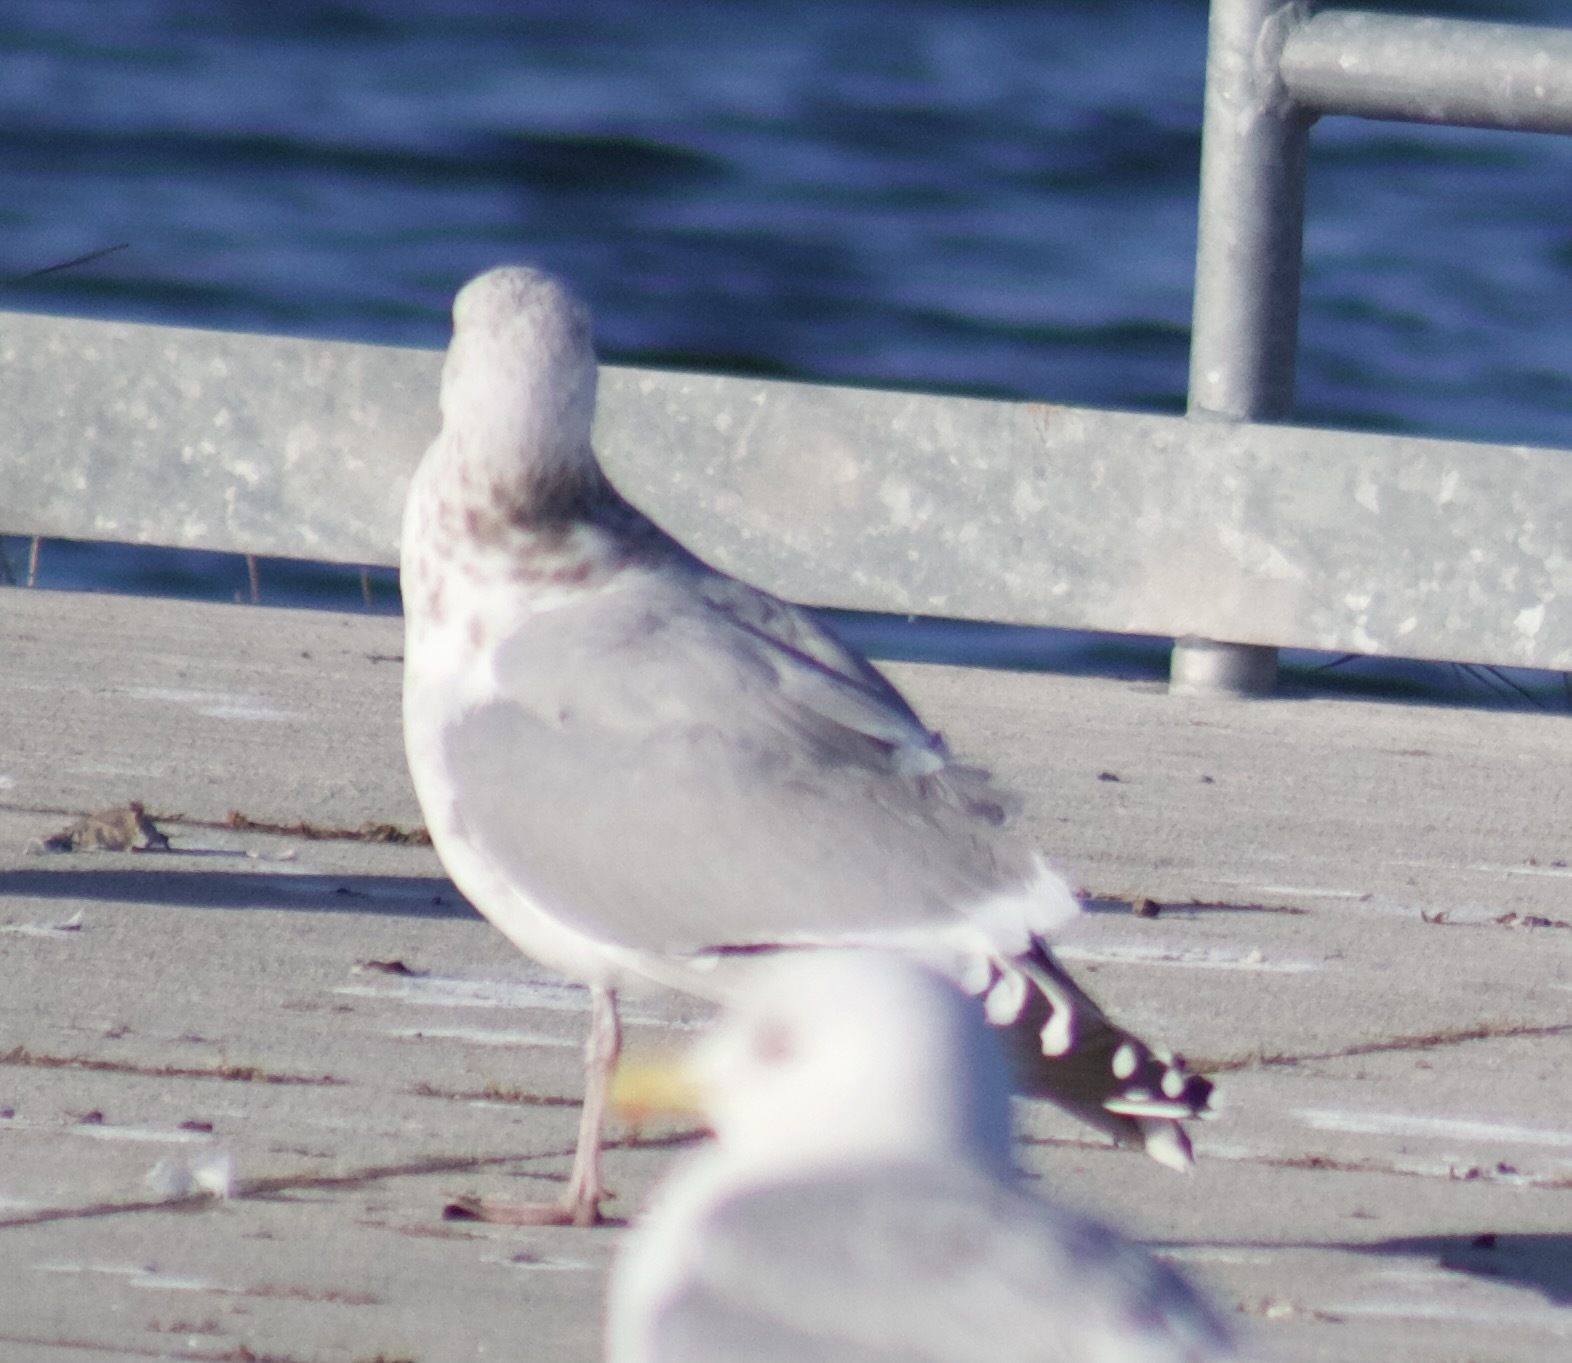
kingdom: Animalia
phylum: Chordata
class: Aves
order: Charadriiformes
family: Laridae
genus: Larus
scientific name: Larus argentatus
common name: Herring gull
